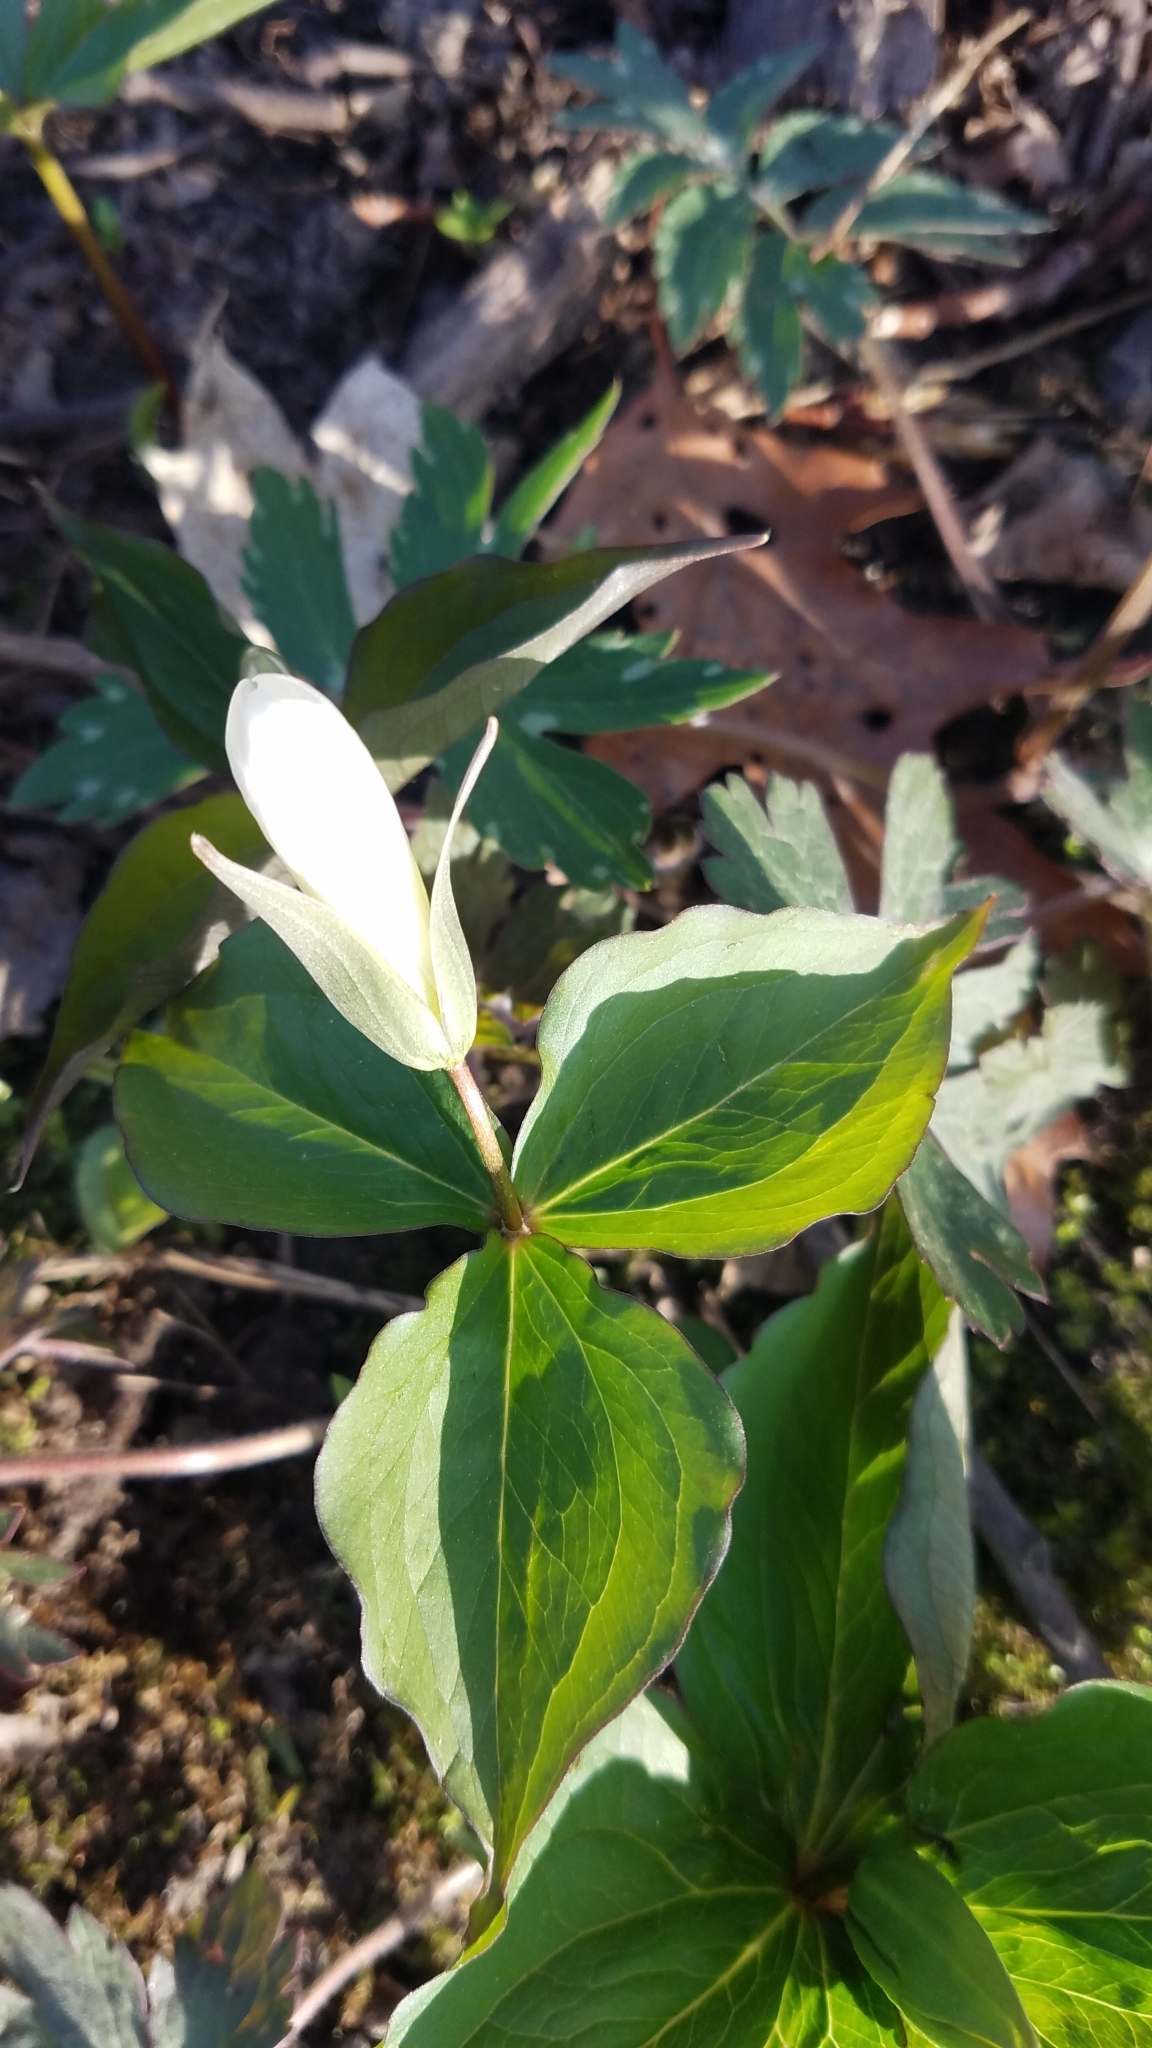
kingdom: Plantae
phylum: Tracheophyta
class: Liliopsida
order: Liliales
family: Melanthiaceae
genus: Trillium
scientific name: Trillium grandiflorum
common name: Great white trillium
